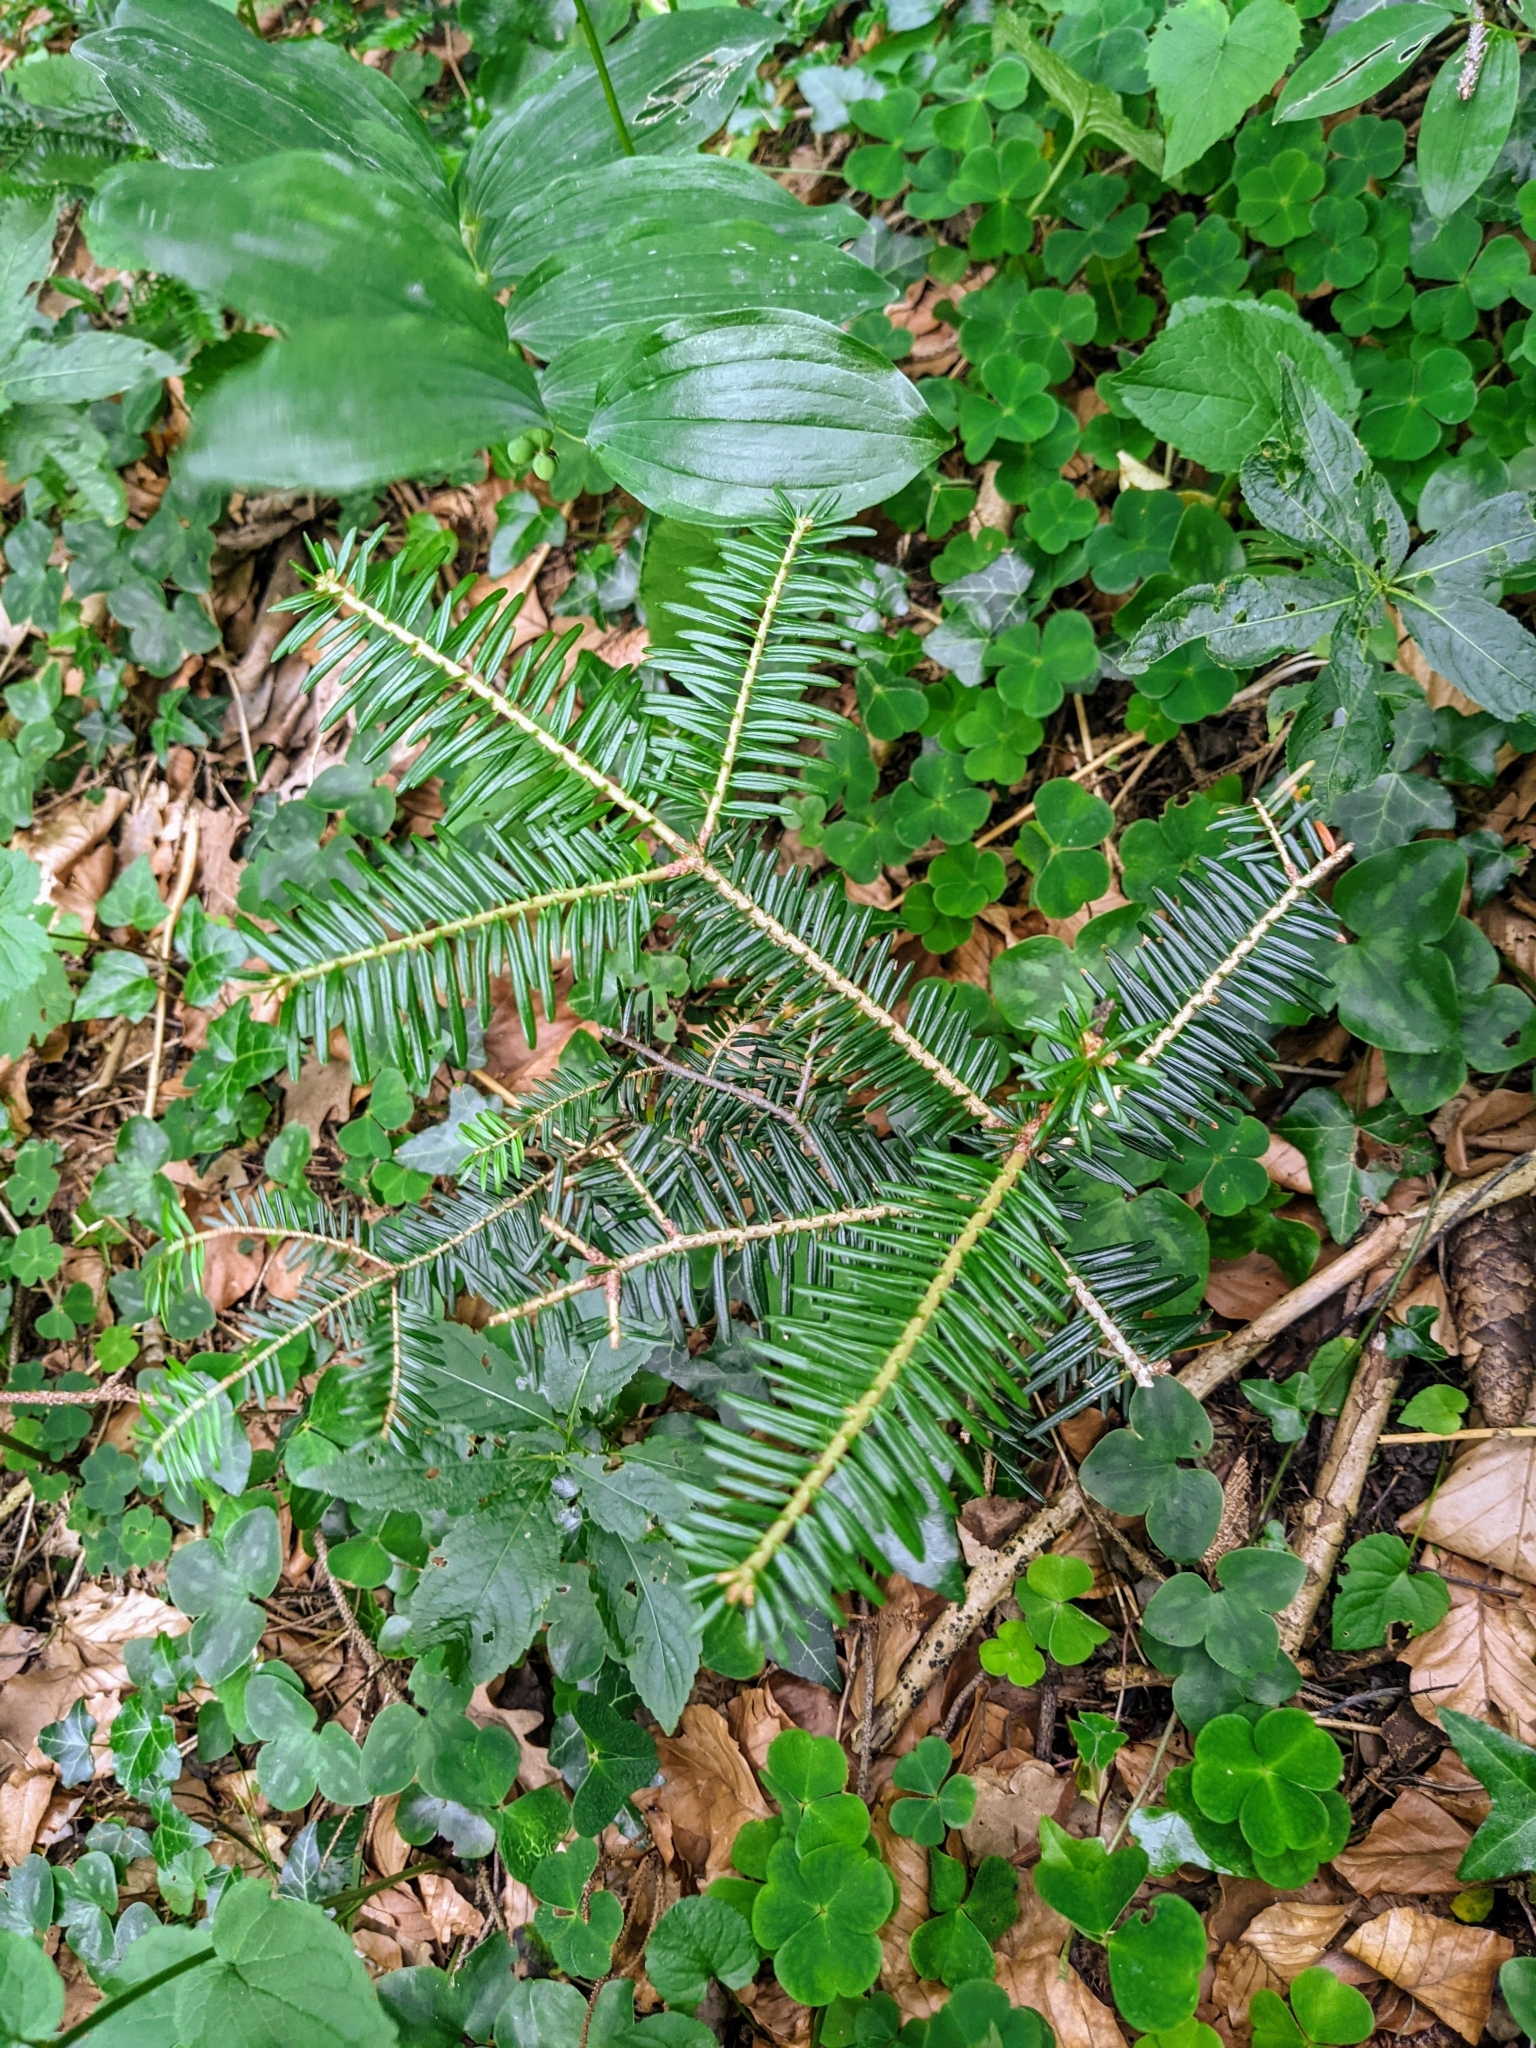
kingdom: Plantae
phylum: Tracheophyta
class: Pinopsida
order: Pinales
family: Pinaceae
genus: Abies
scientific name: Abies alba
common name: Silver fir
